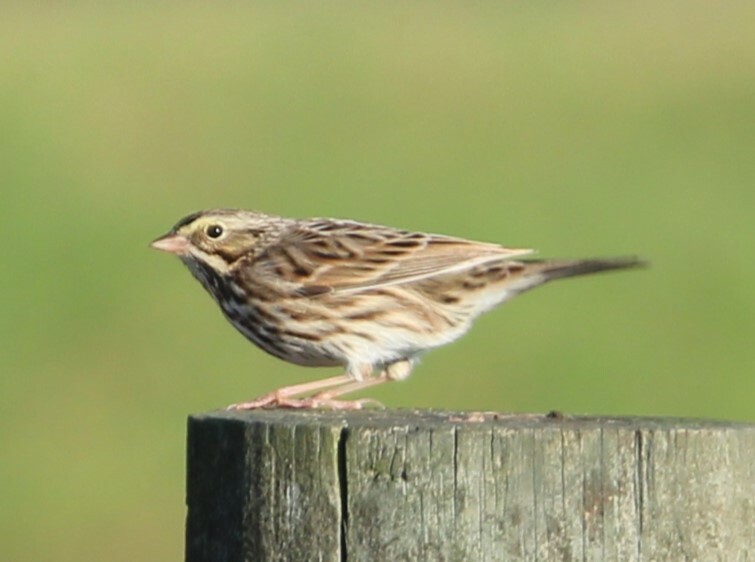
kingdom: Animalia
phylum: Chordata
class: Aves
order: Passeriformes
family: Passerellidae
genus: Passerculus
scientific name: Passerculus sandwichensis
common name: Savannah sparrow
